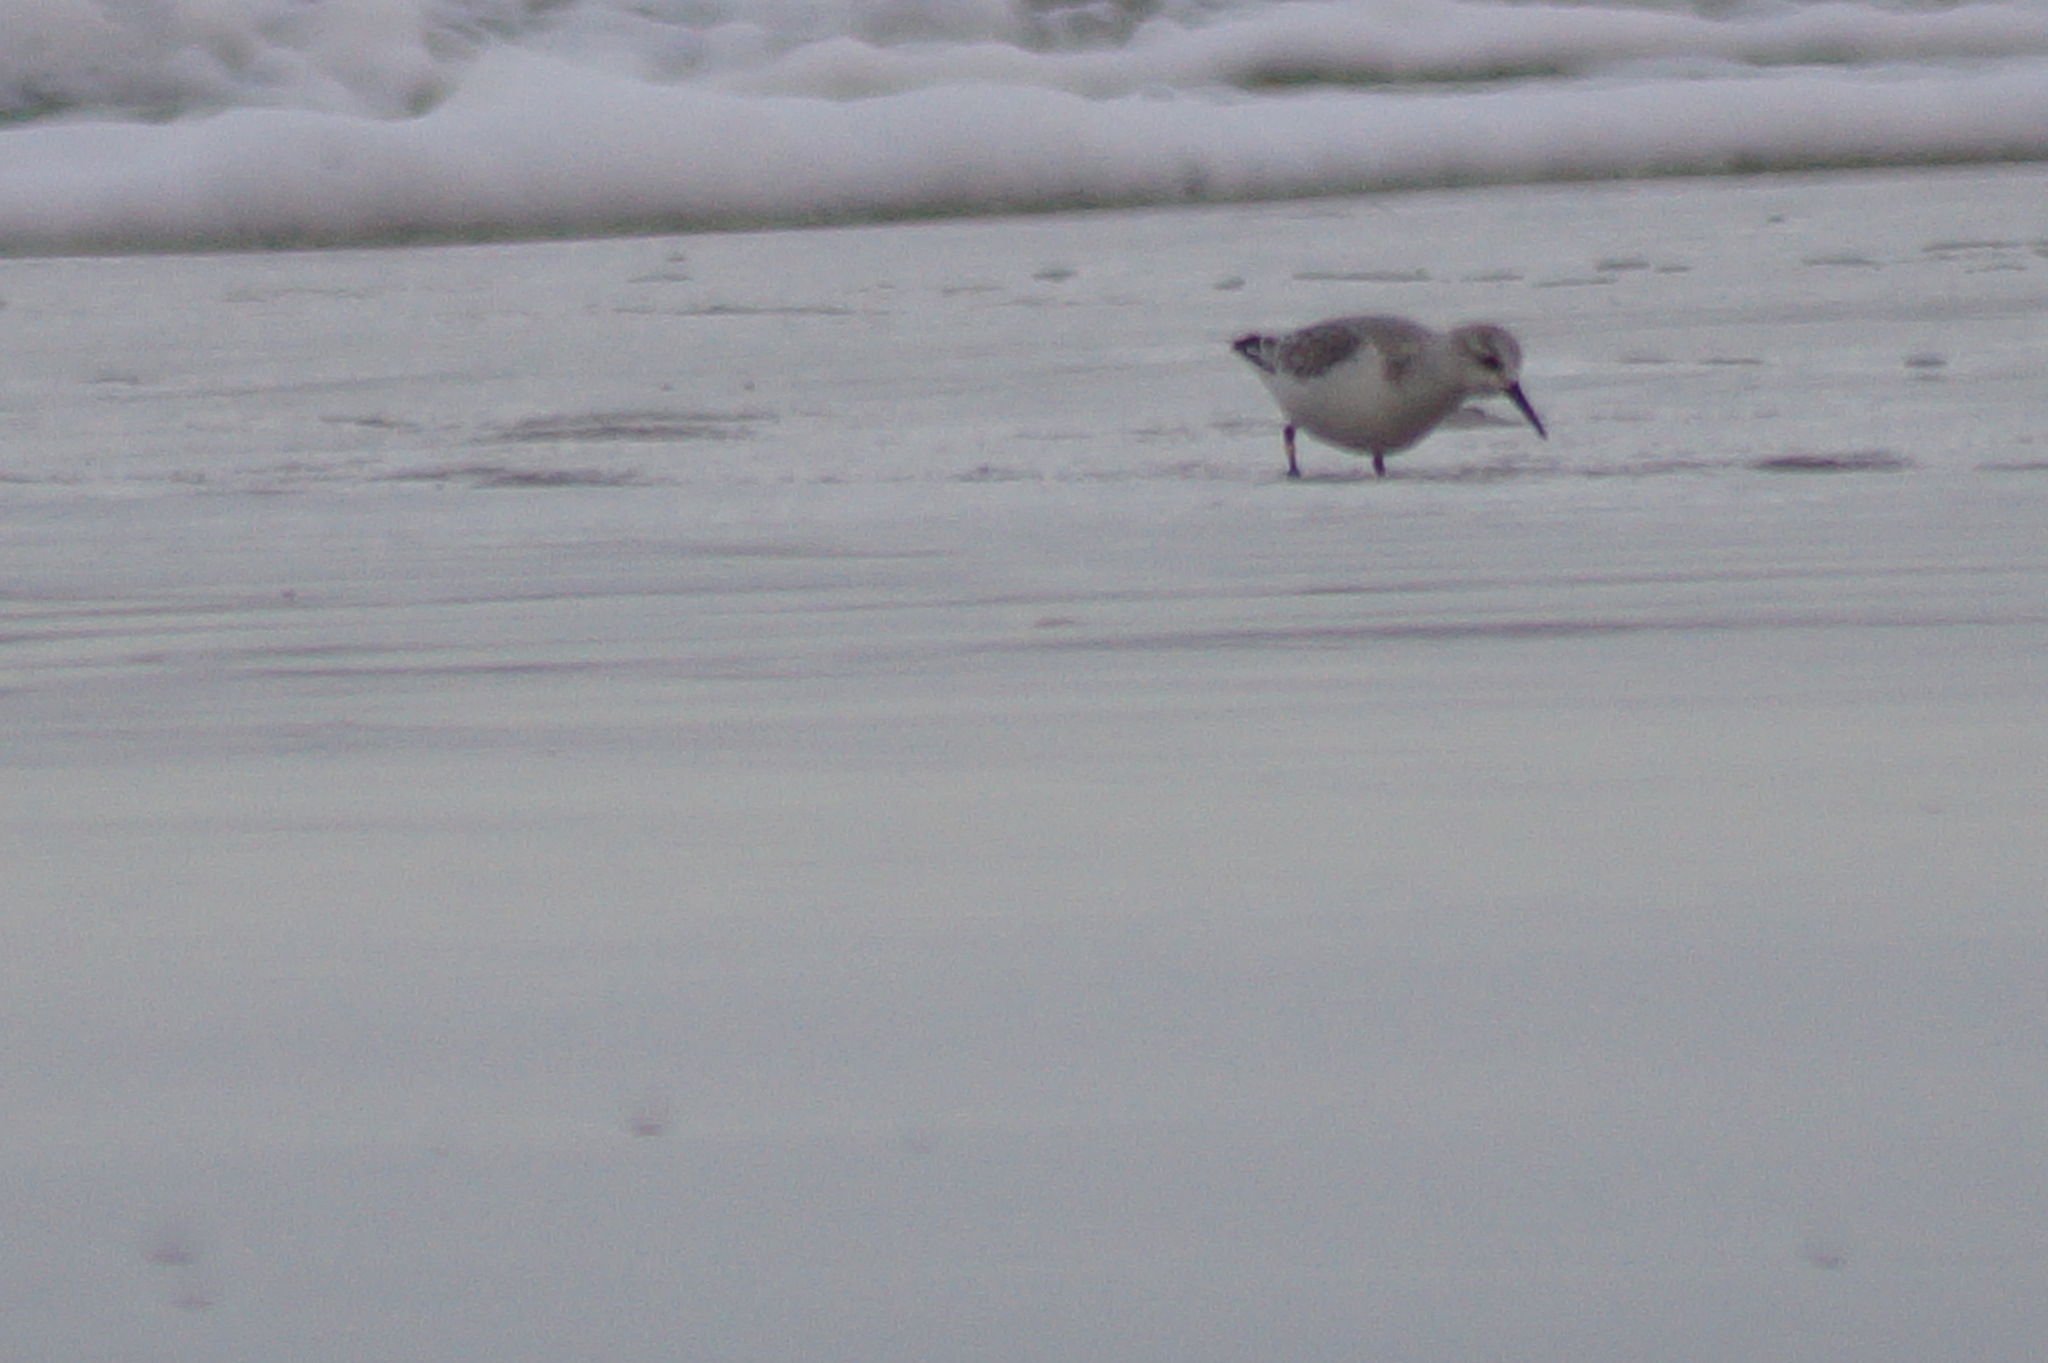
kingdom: Animalia
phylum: Chordata
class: Aves
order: Charadriiformes
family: Scolopacidae
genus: Calidris
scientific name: Calidris alba
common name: Sanderling
